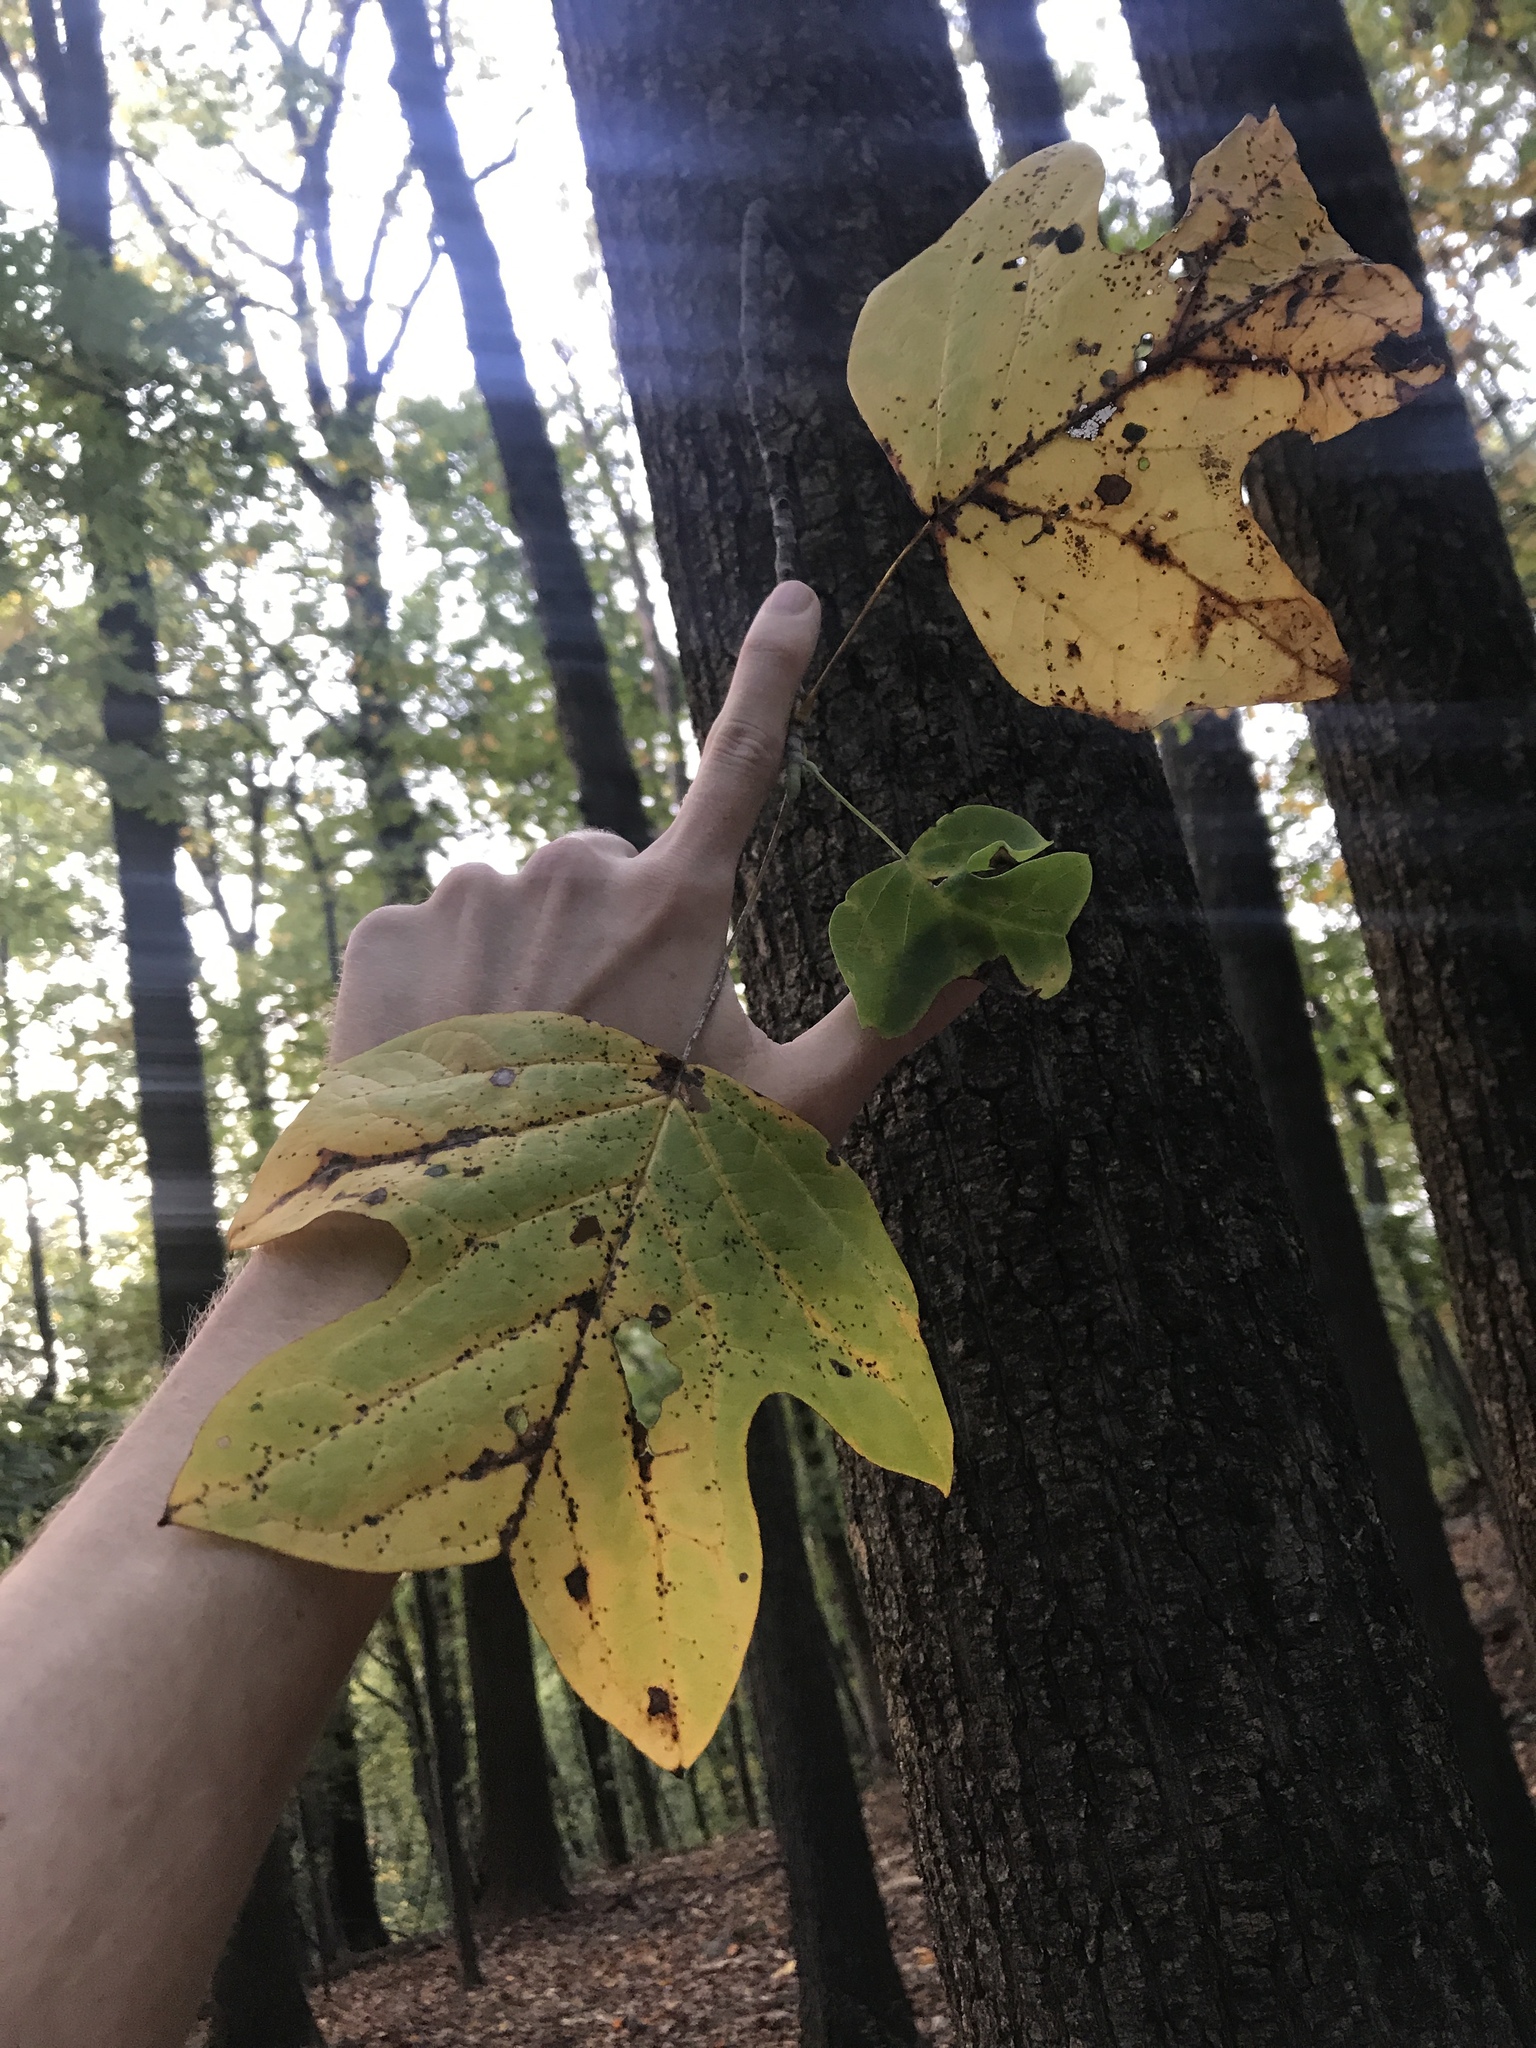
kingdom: Plantae
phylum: Tracheophyta
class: Magnoliopsida
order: Magnoliales
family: Magnoliaceae
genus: Liriodendron
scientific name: Liriodendron tulipifera
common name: Tulip tree
